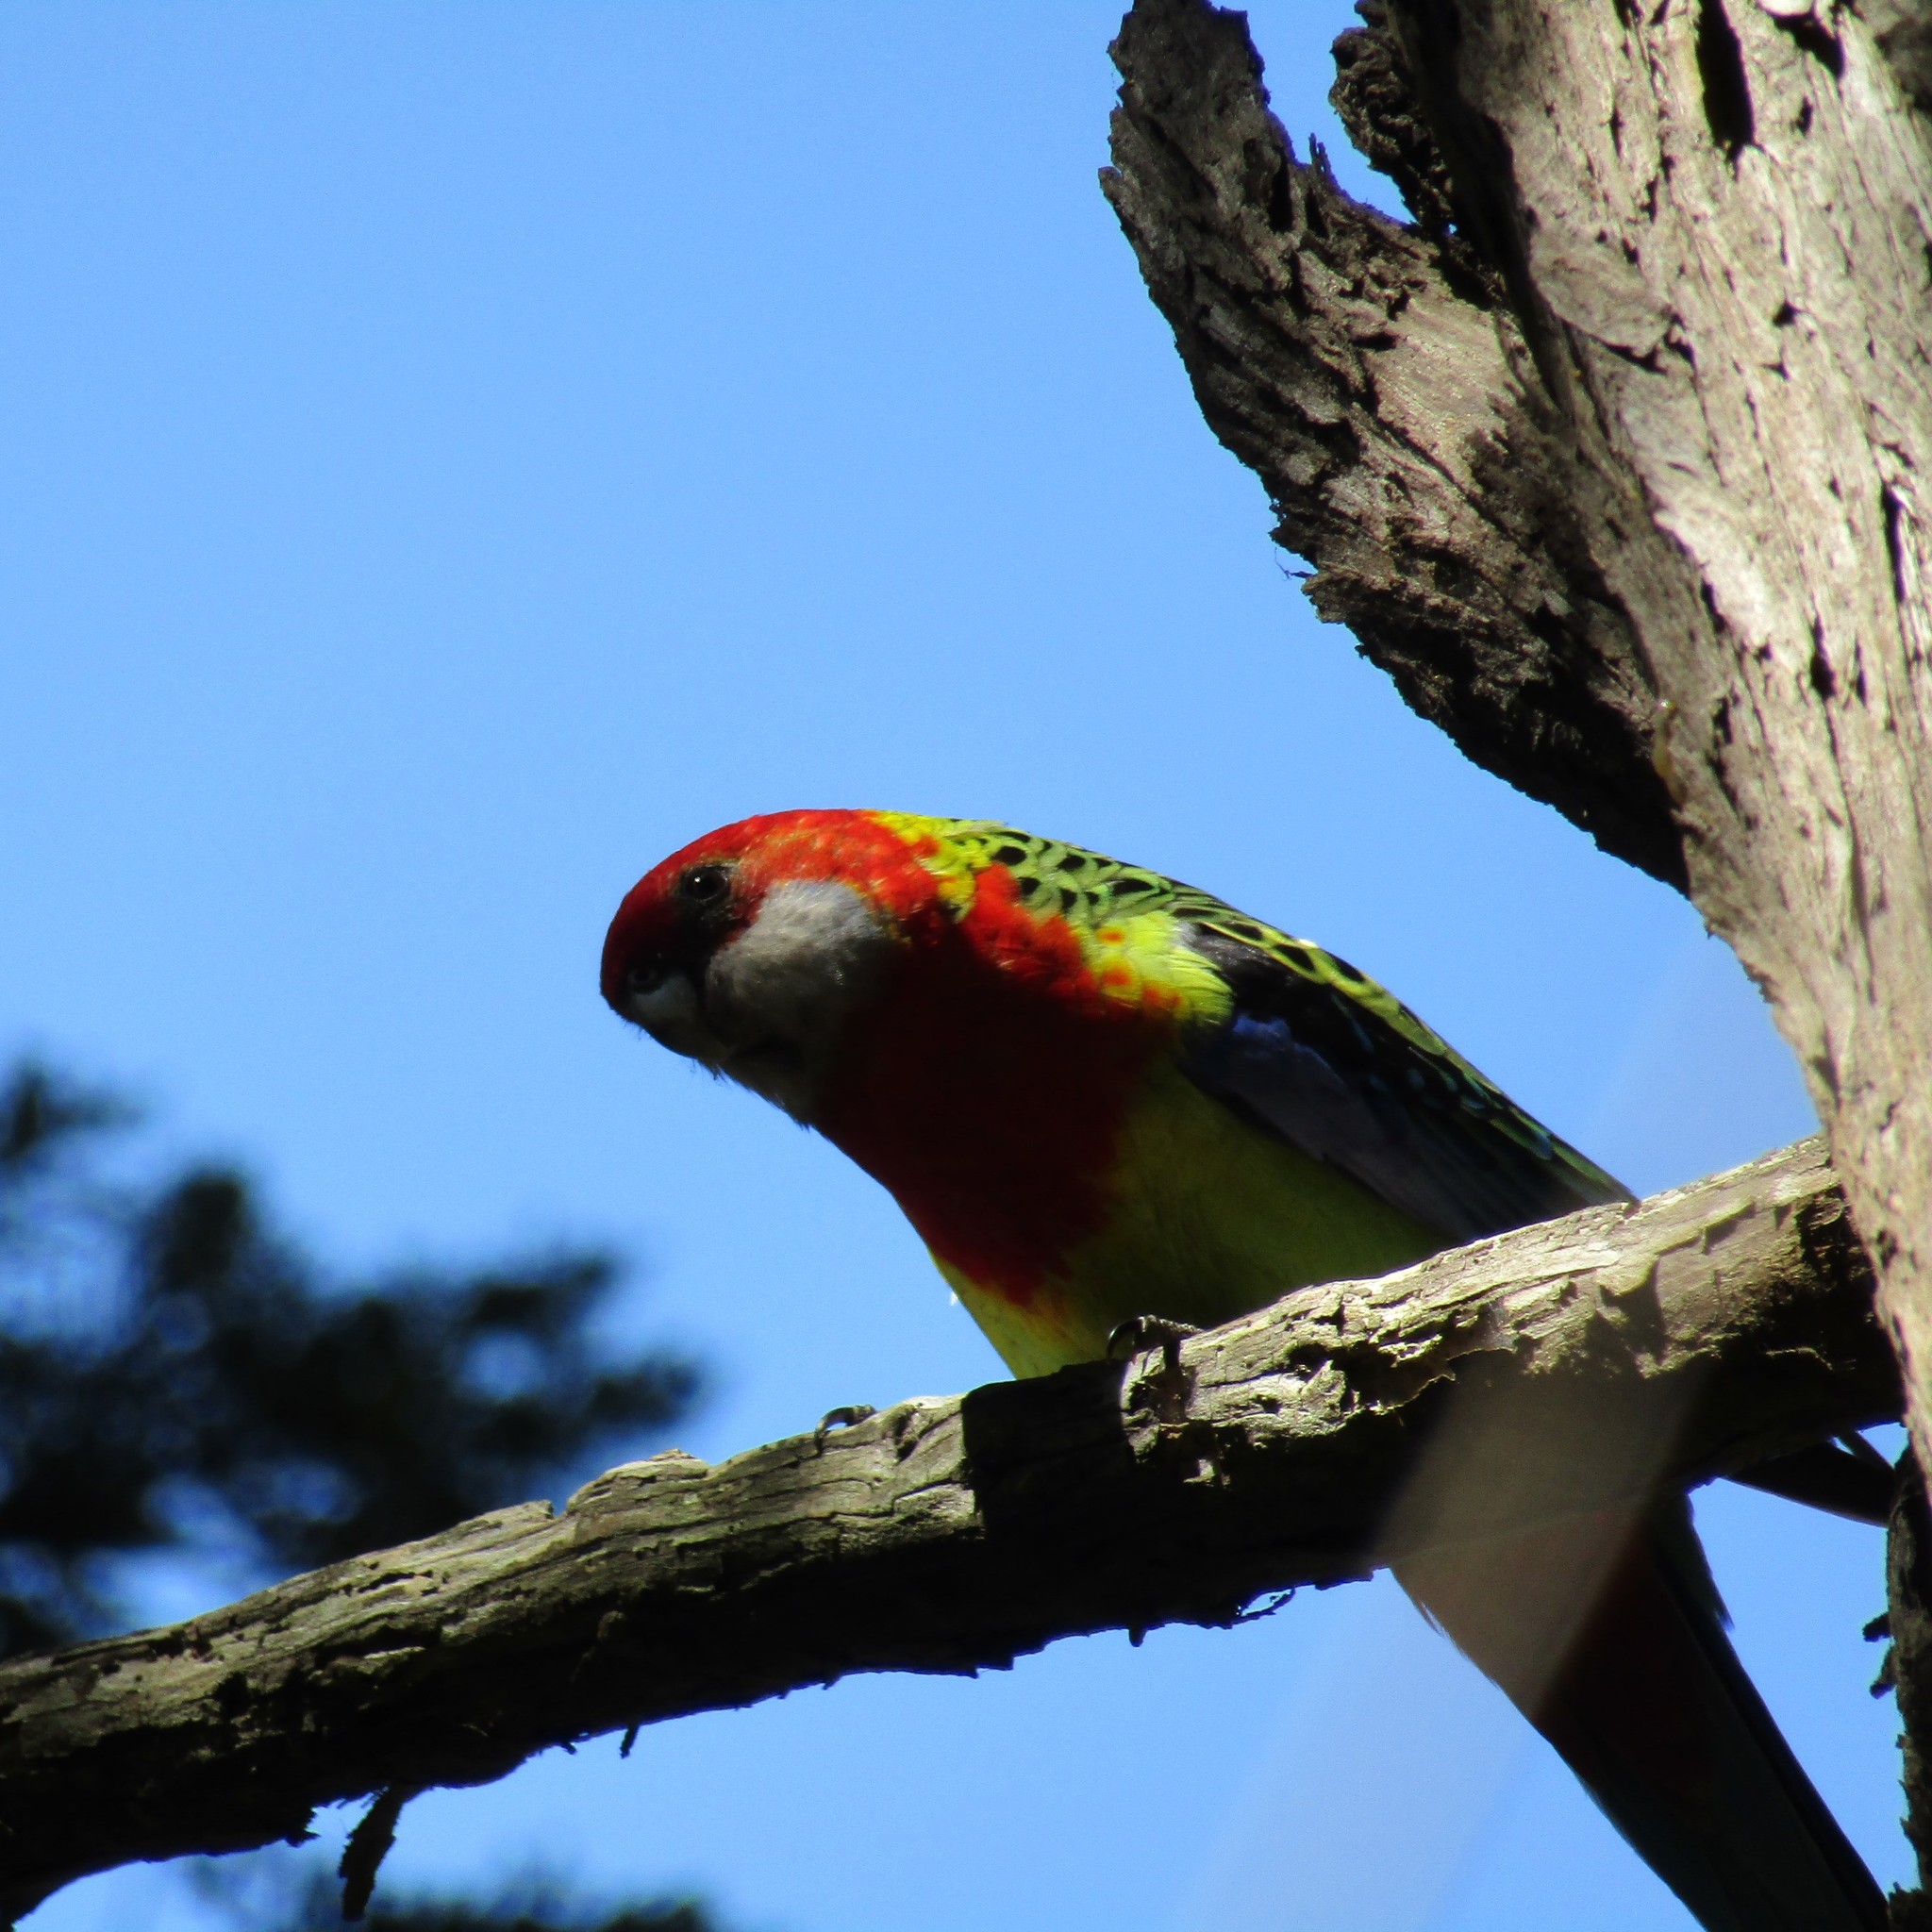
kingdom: Animalia
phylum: Chordata
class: Aves
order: Psittaciformes
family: Psittacidae
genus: Platycercus
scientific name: Platycercus eximius
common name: Eastern rosella
